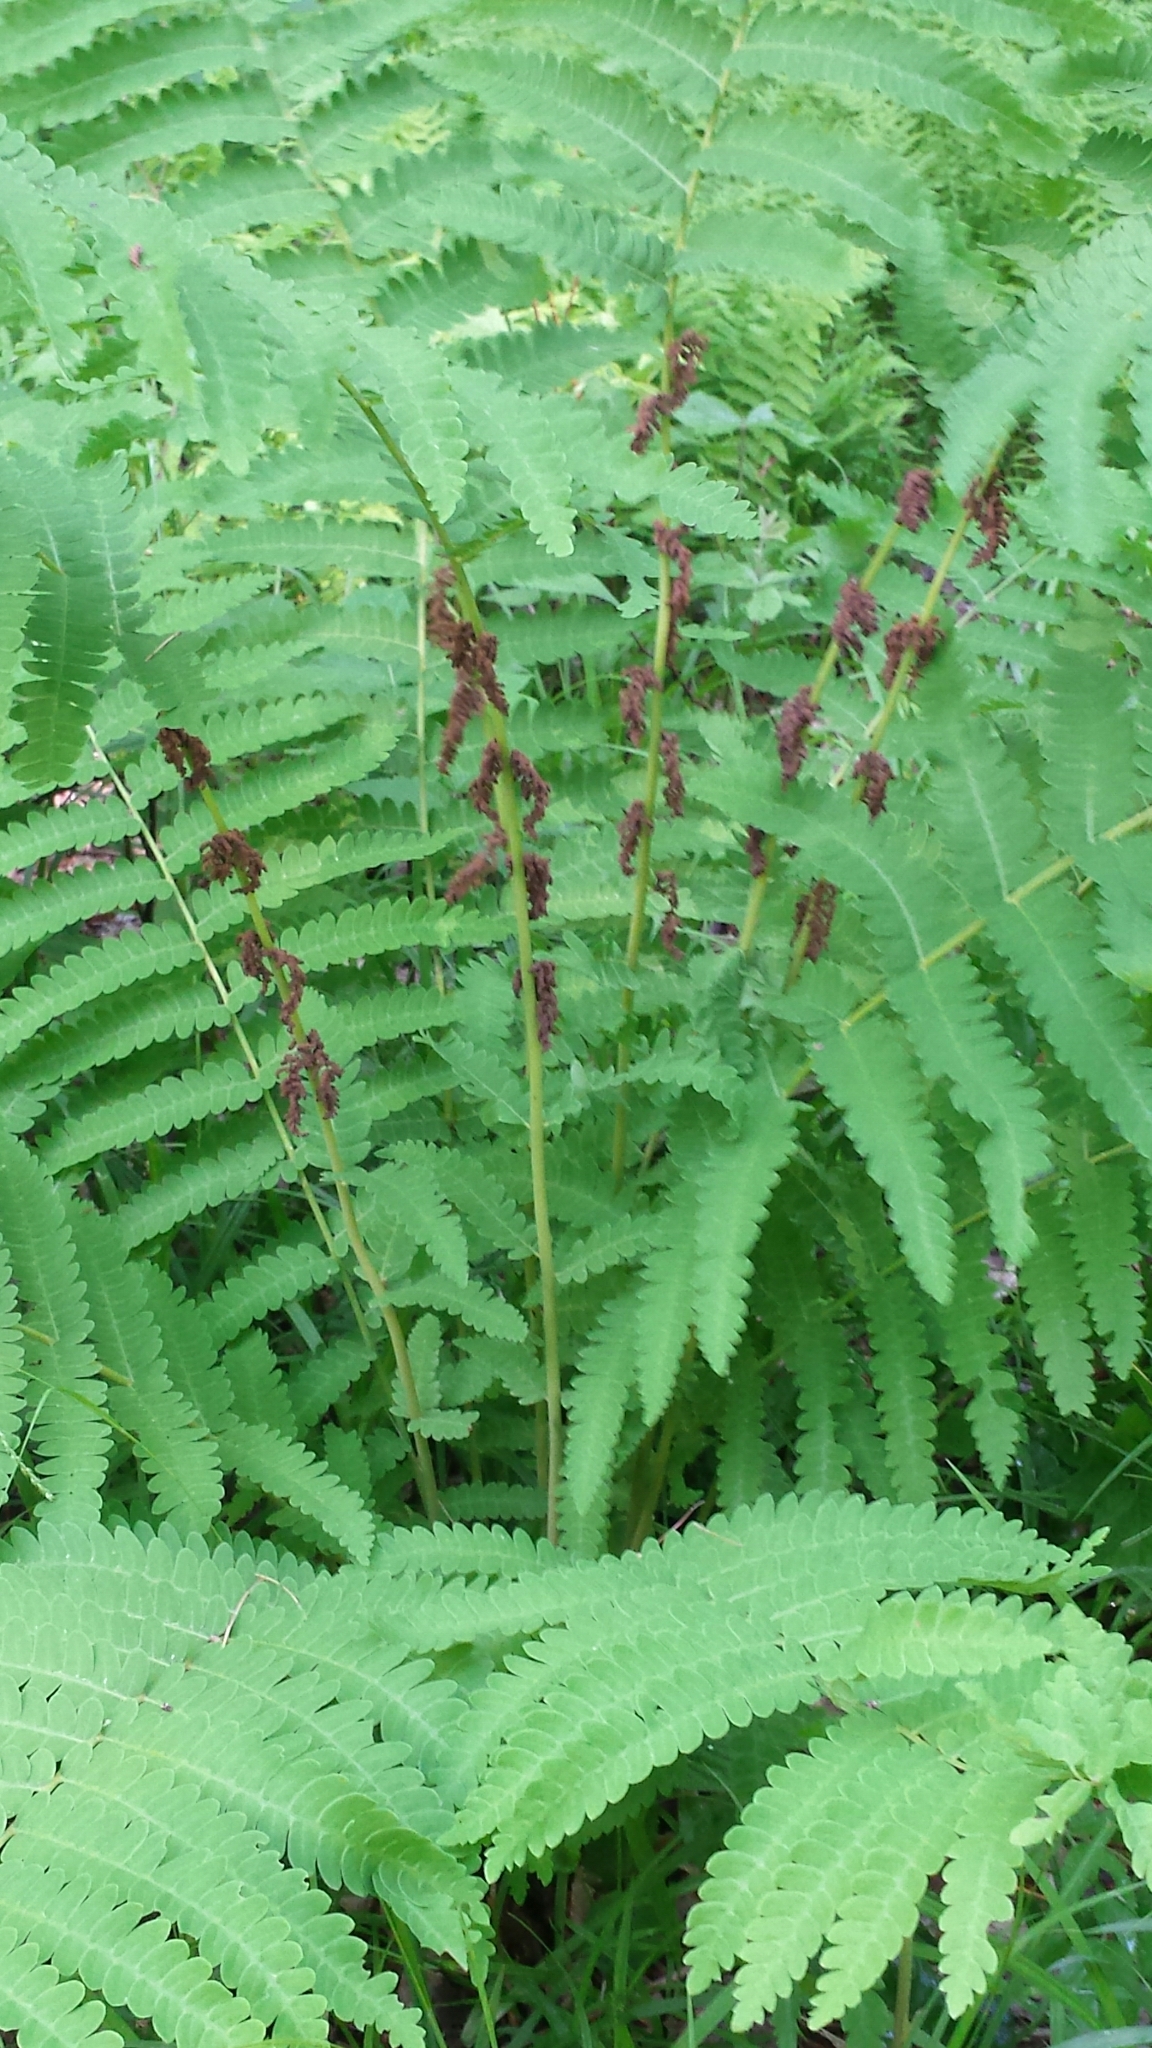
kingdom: Plantae
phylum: Tracheophyta
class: Polypodiopsida
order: Osmundales
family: Osmundaceae
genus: Claytosmunda
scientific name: Claytosmunda claytoniana
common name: Clayton's fern
